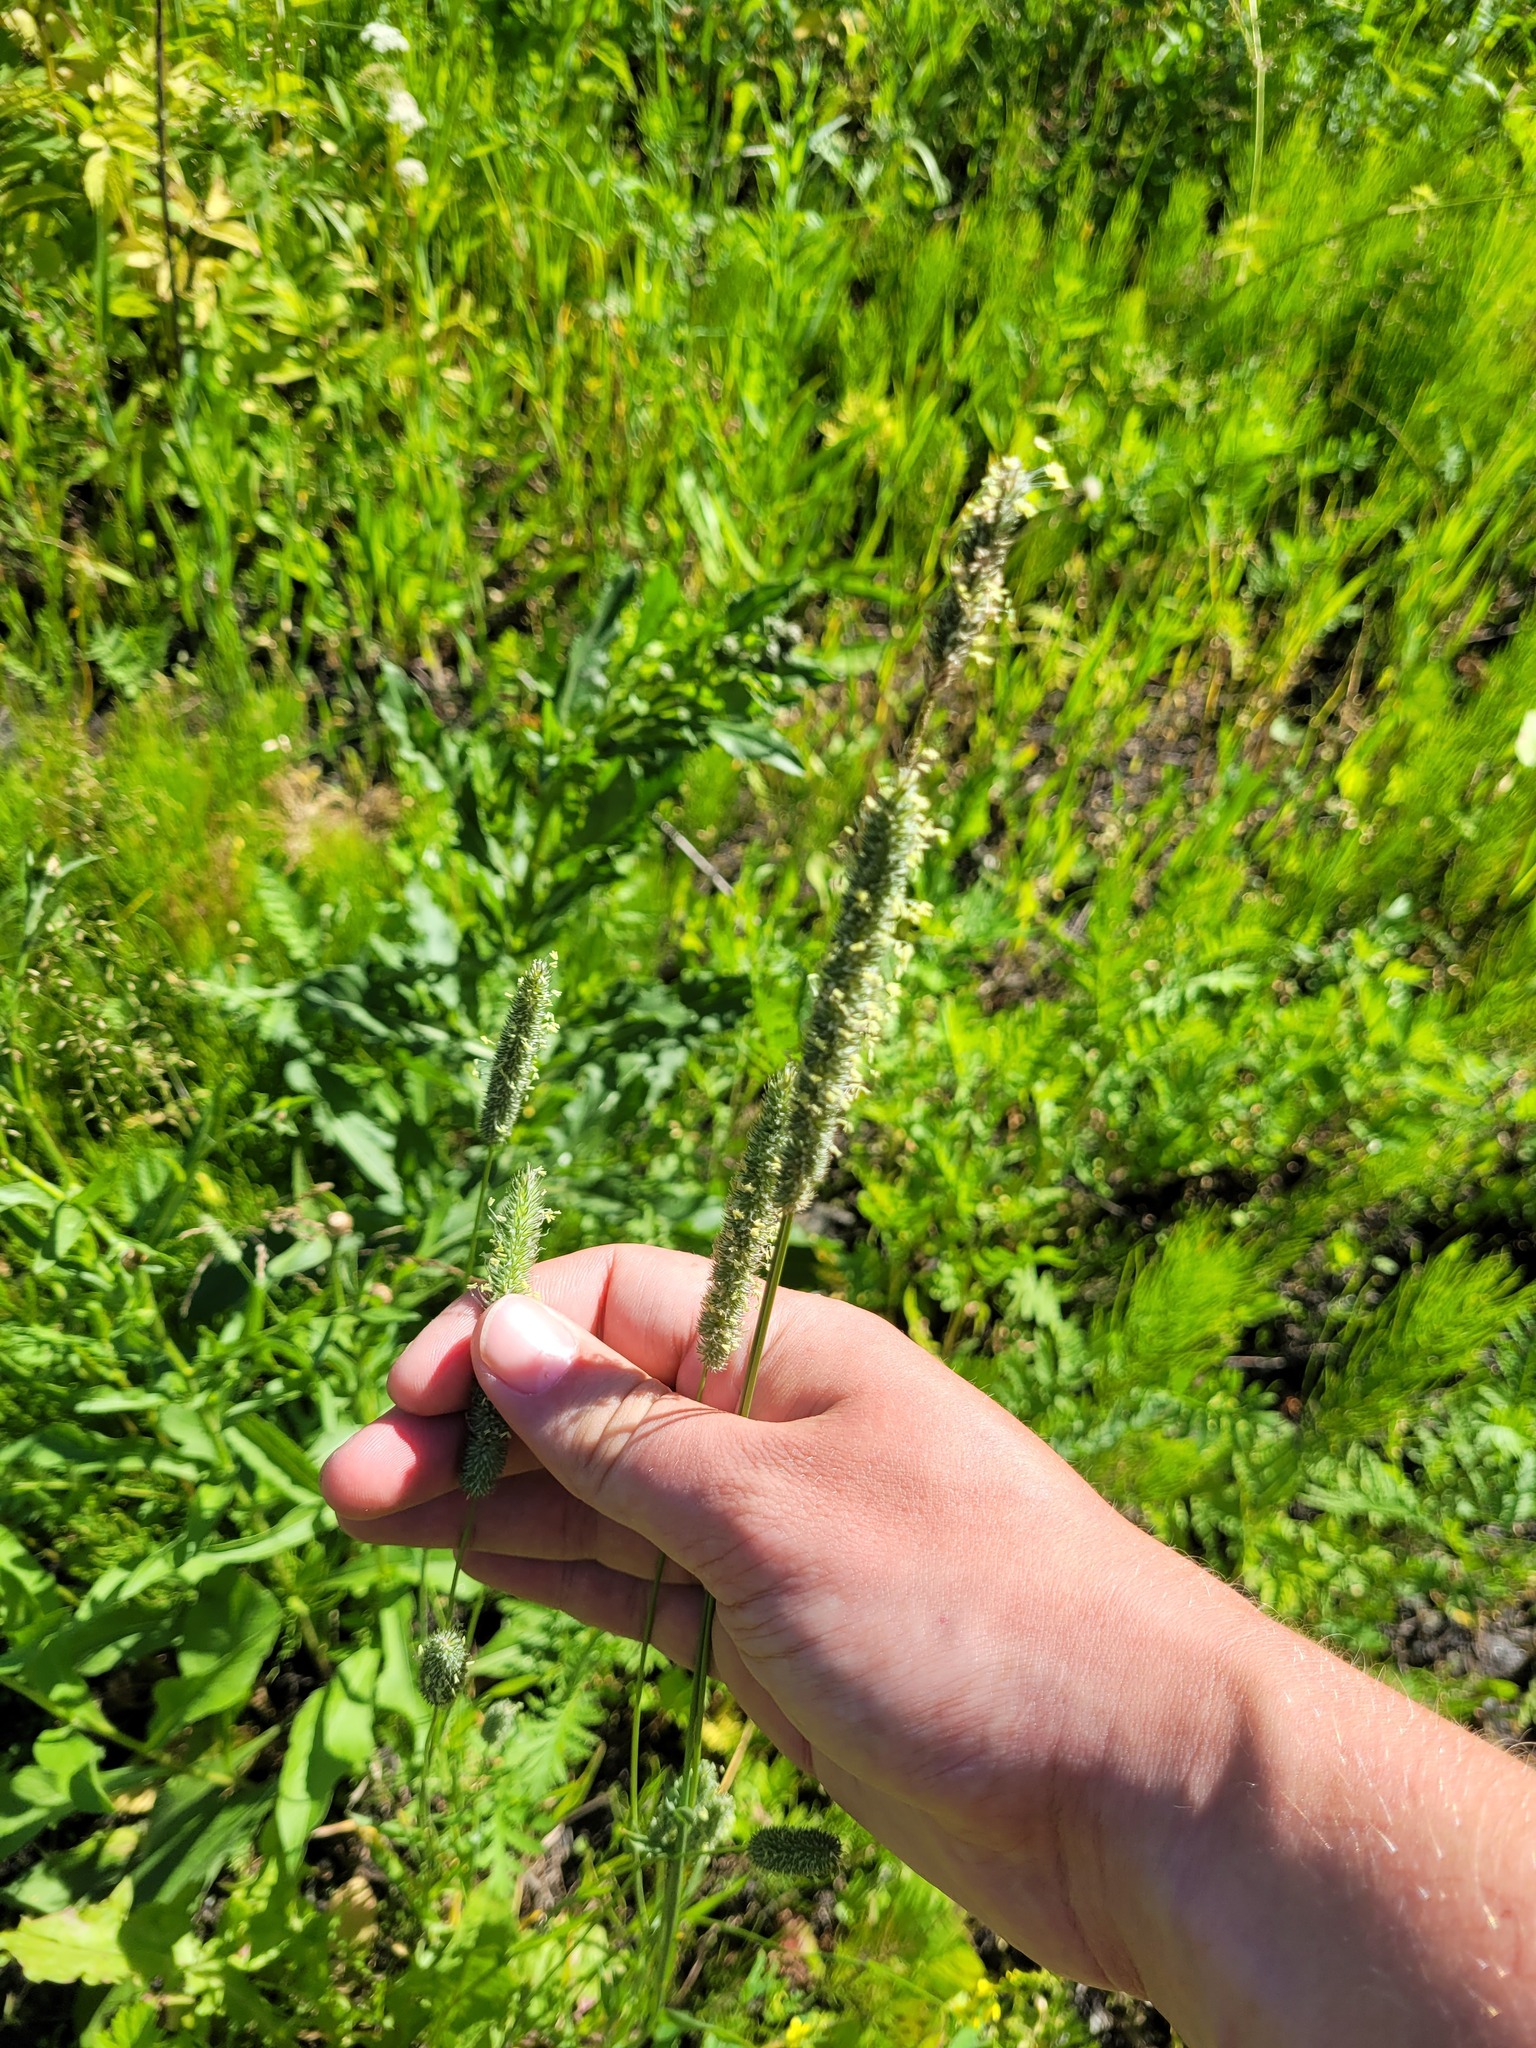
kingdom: Plantae
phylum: Tracheophyta
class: Liliopsida
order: Poales
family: Poaceae
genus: Phleum
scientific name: Phleum pratense
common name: Timothy grass
